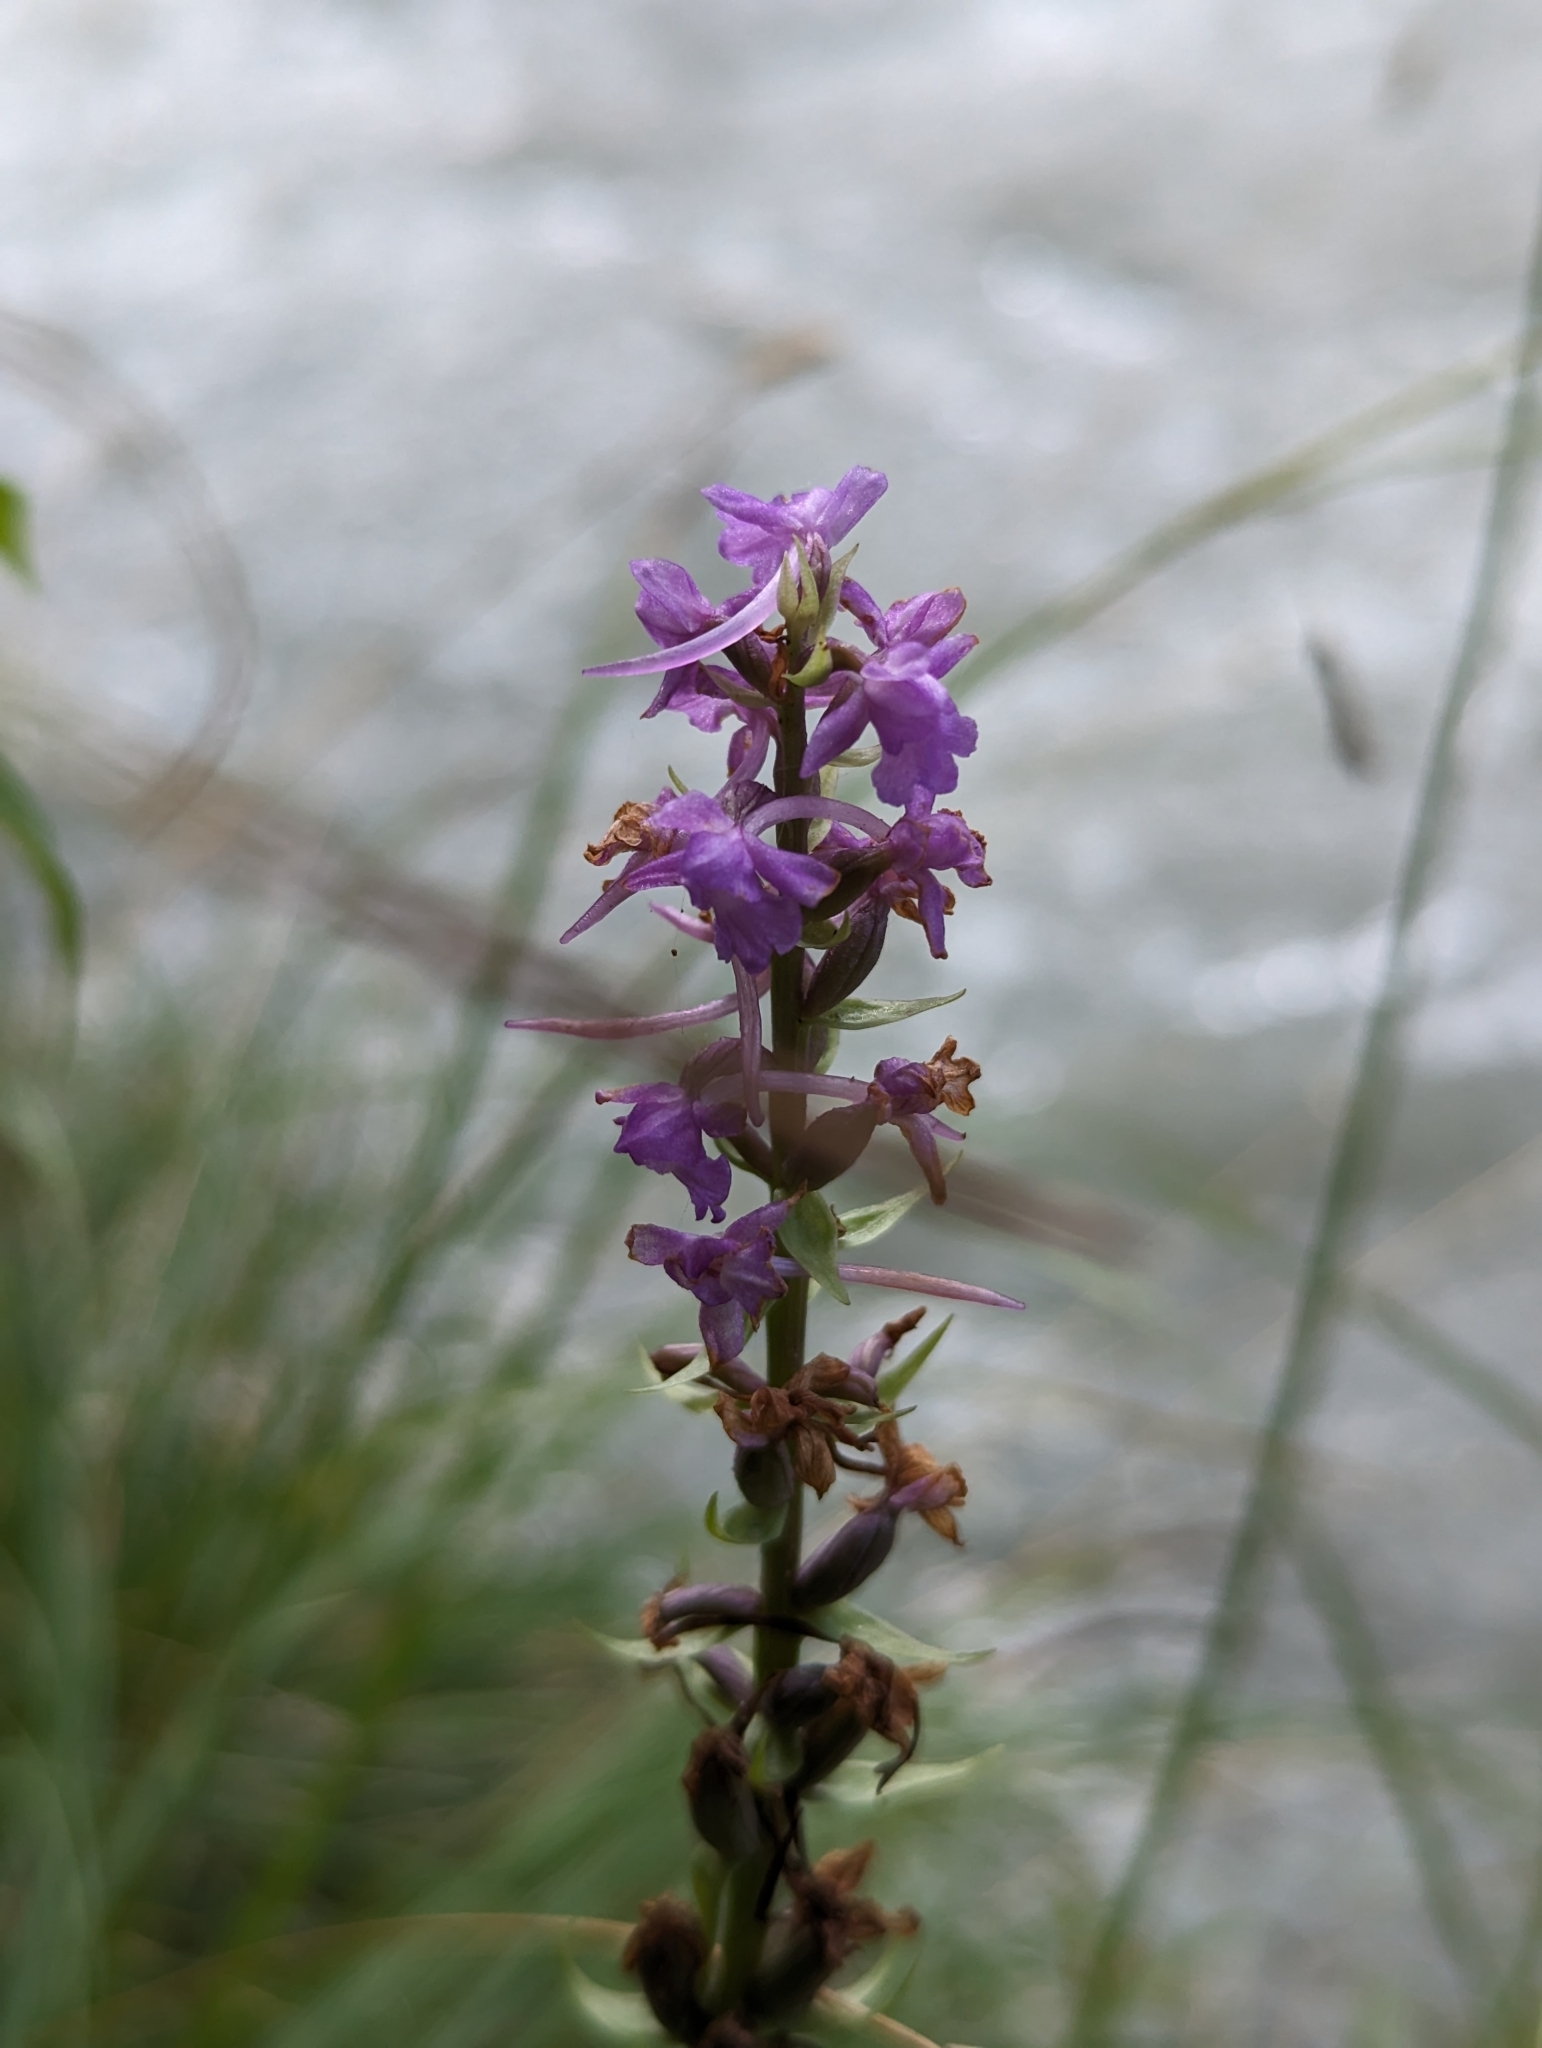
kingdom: Plantae
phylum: Tracheophyta
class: Liliopsida
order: Asparagales
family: Orchidaceae
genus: Gymnadenia
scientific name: Gymnadenia conopsea
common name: Fragrant orchid
